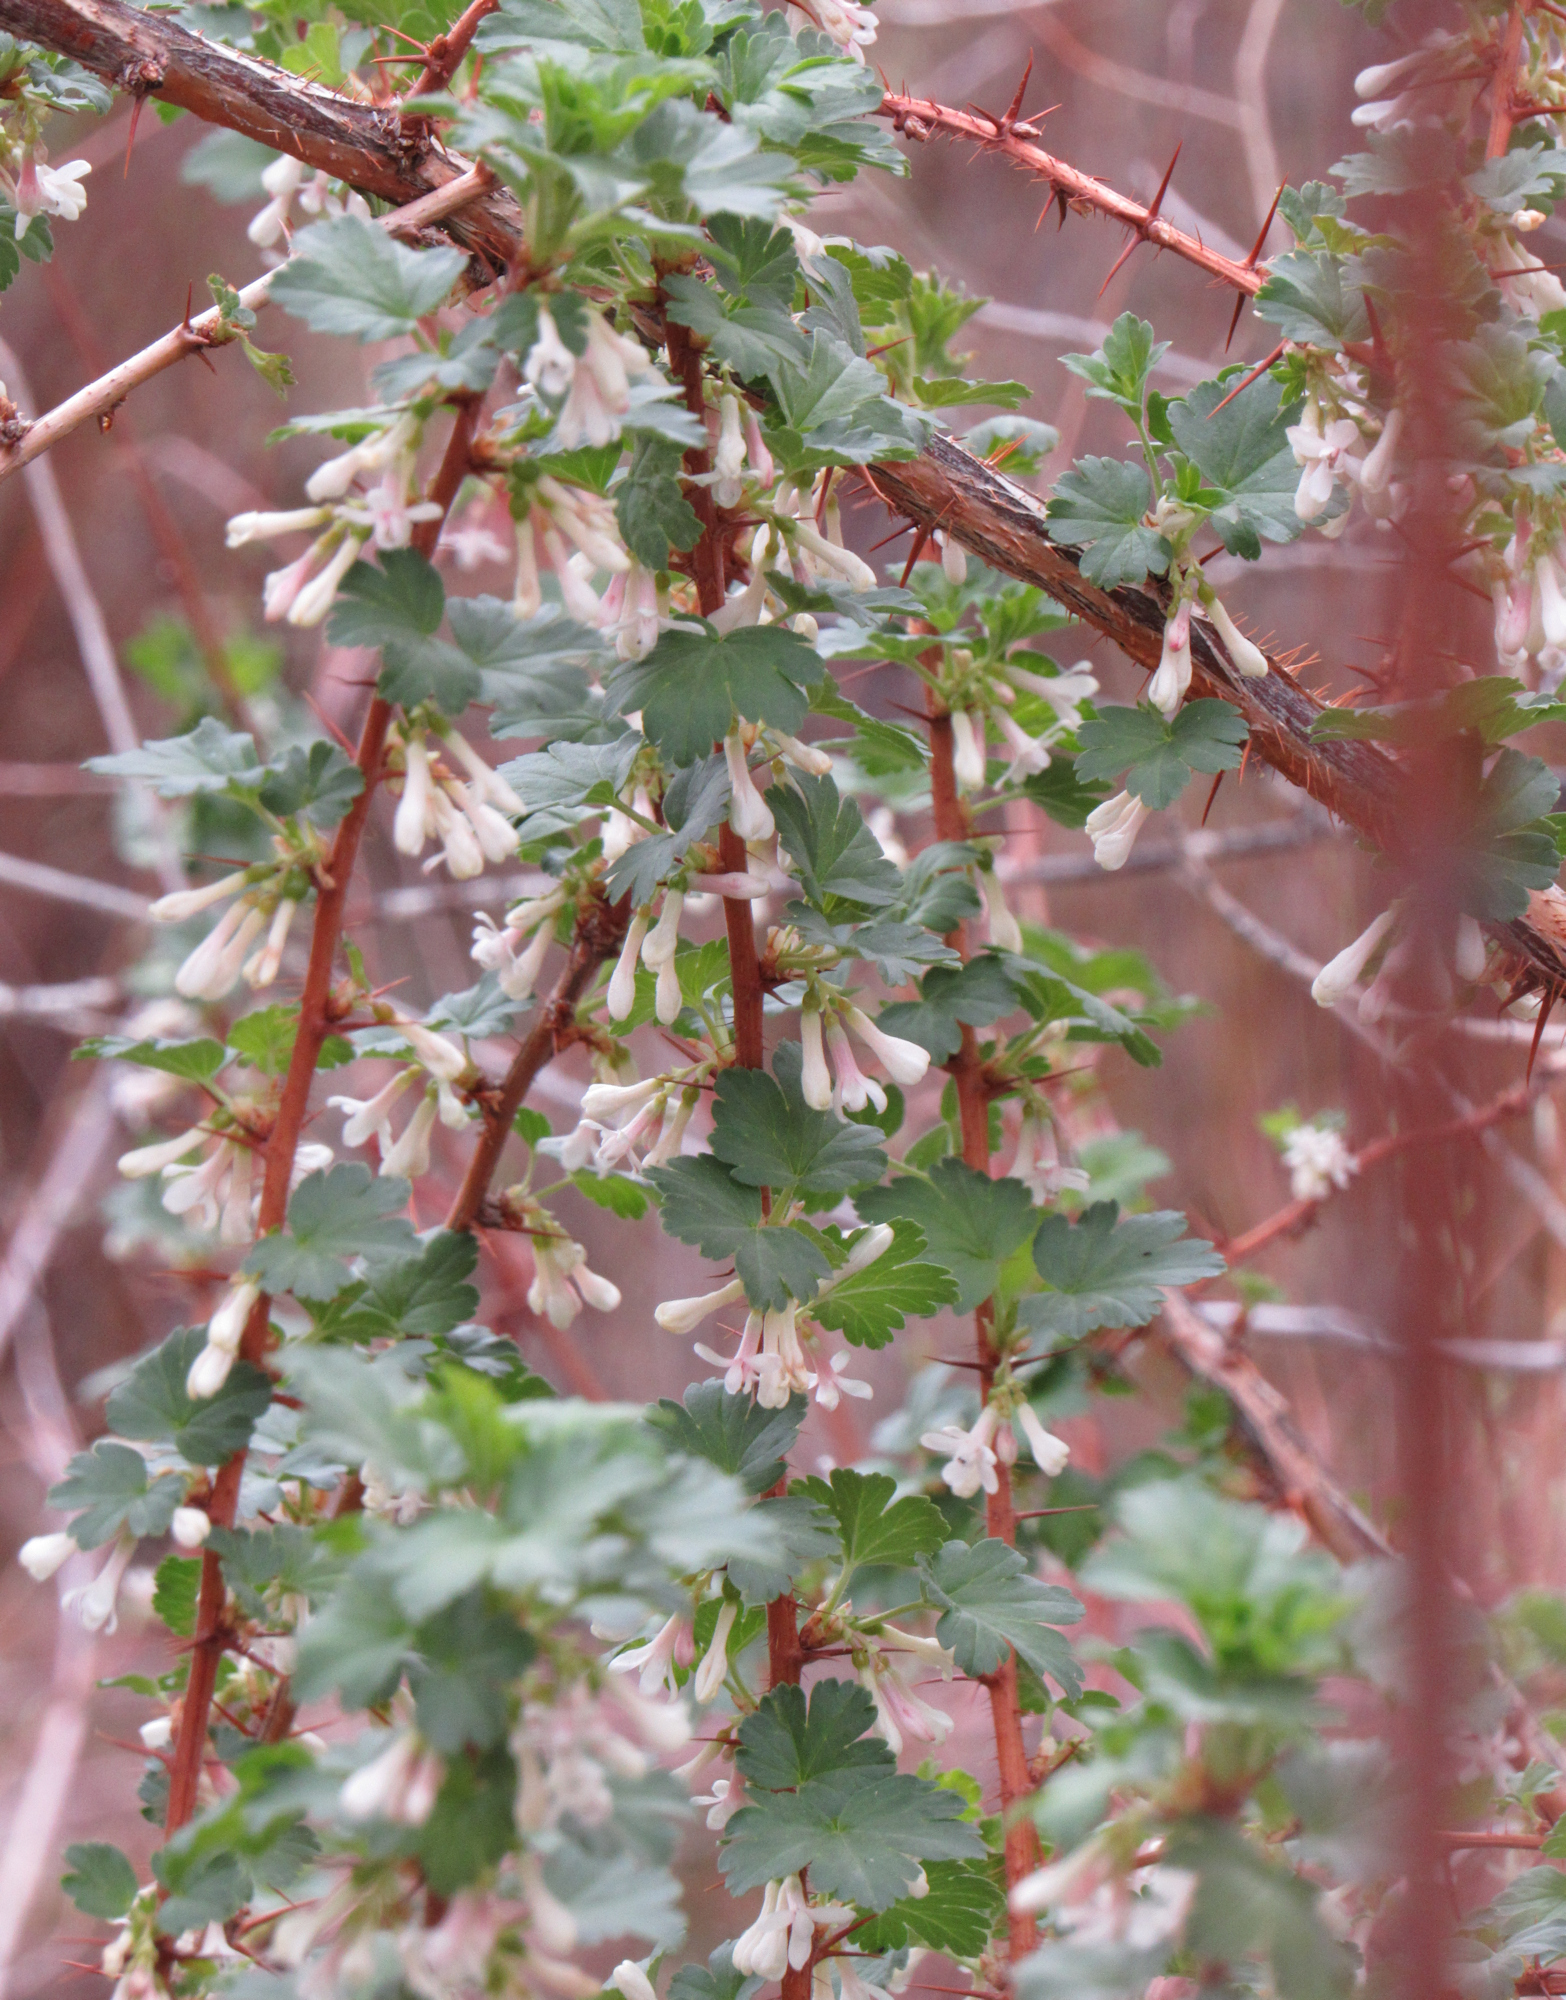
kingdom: Plantae
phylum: Tracheophyta
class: Magnoliopsida
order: Saxifragales
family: Grossulariaceae
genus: Ribes
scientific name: Ribes oxyacanthoides
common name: Northern gooseberry
